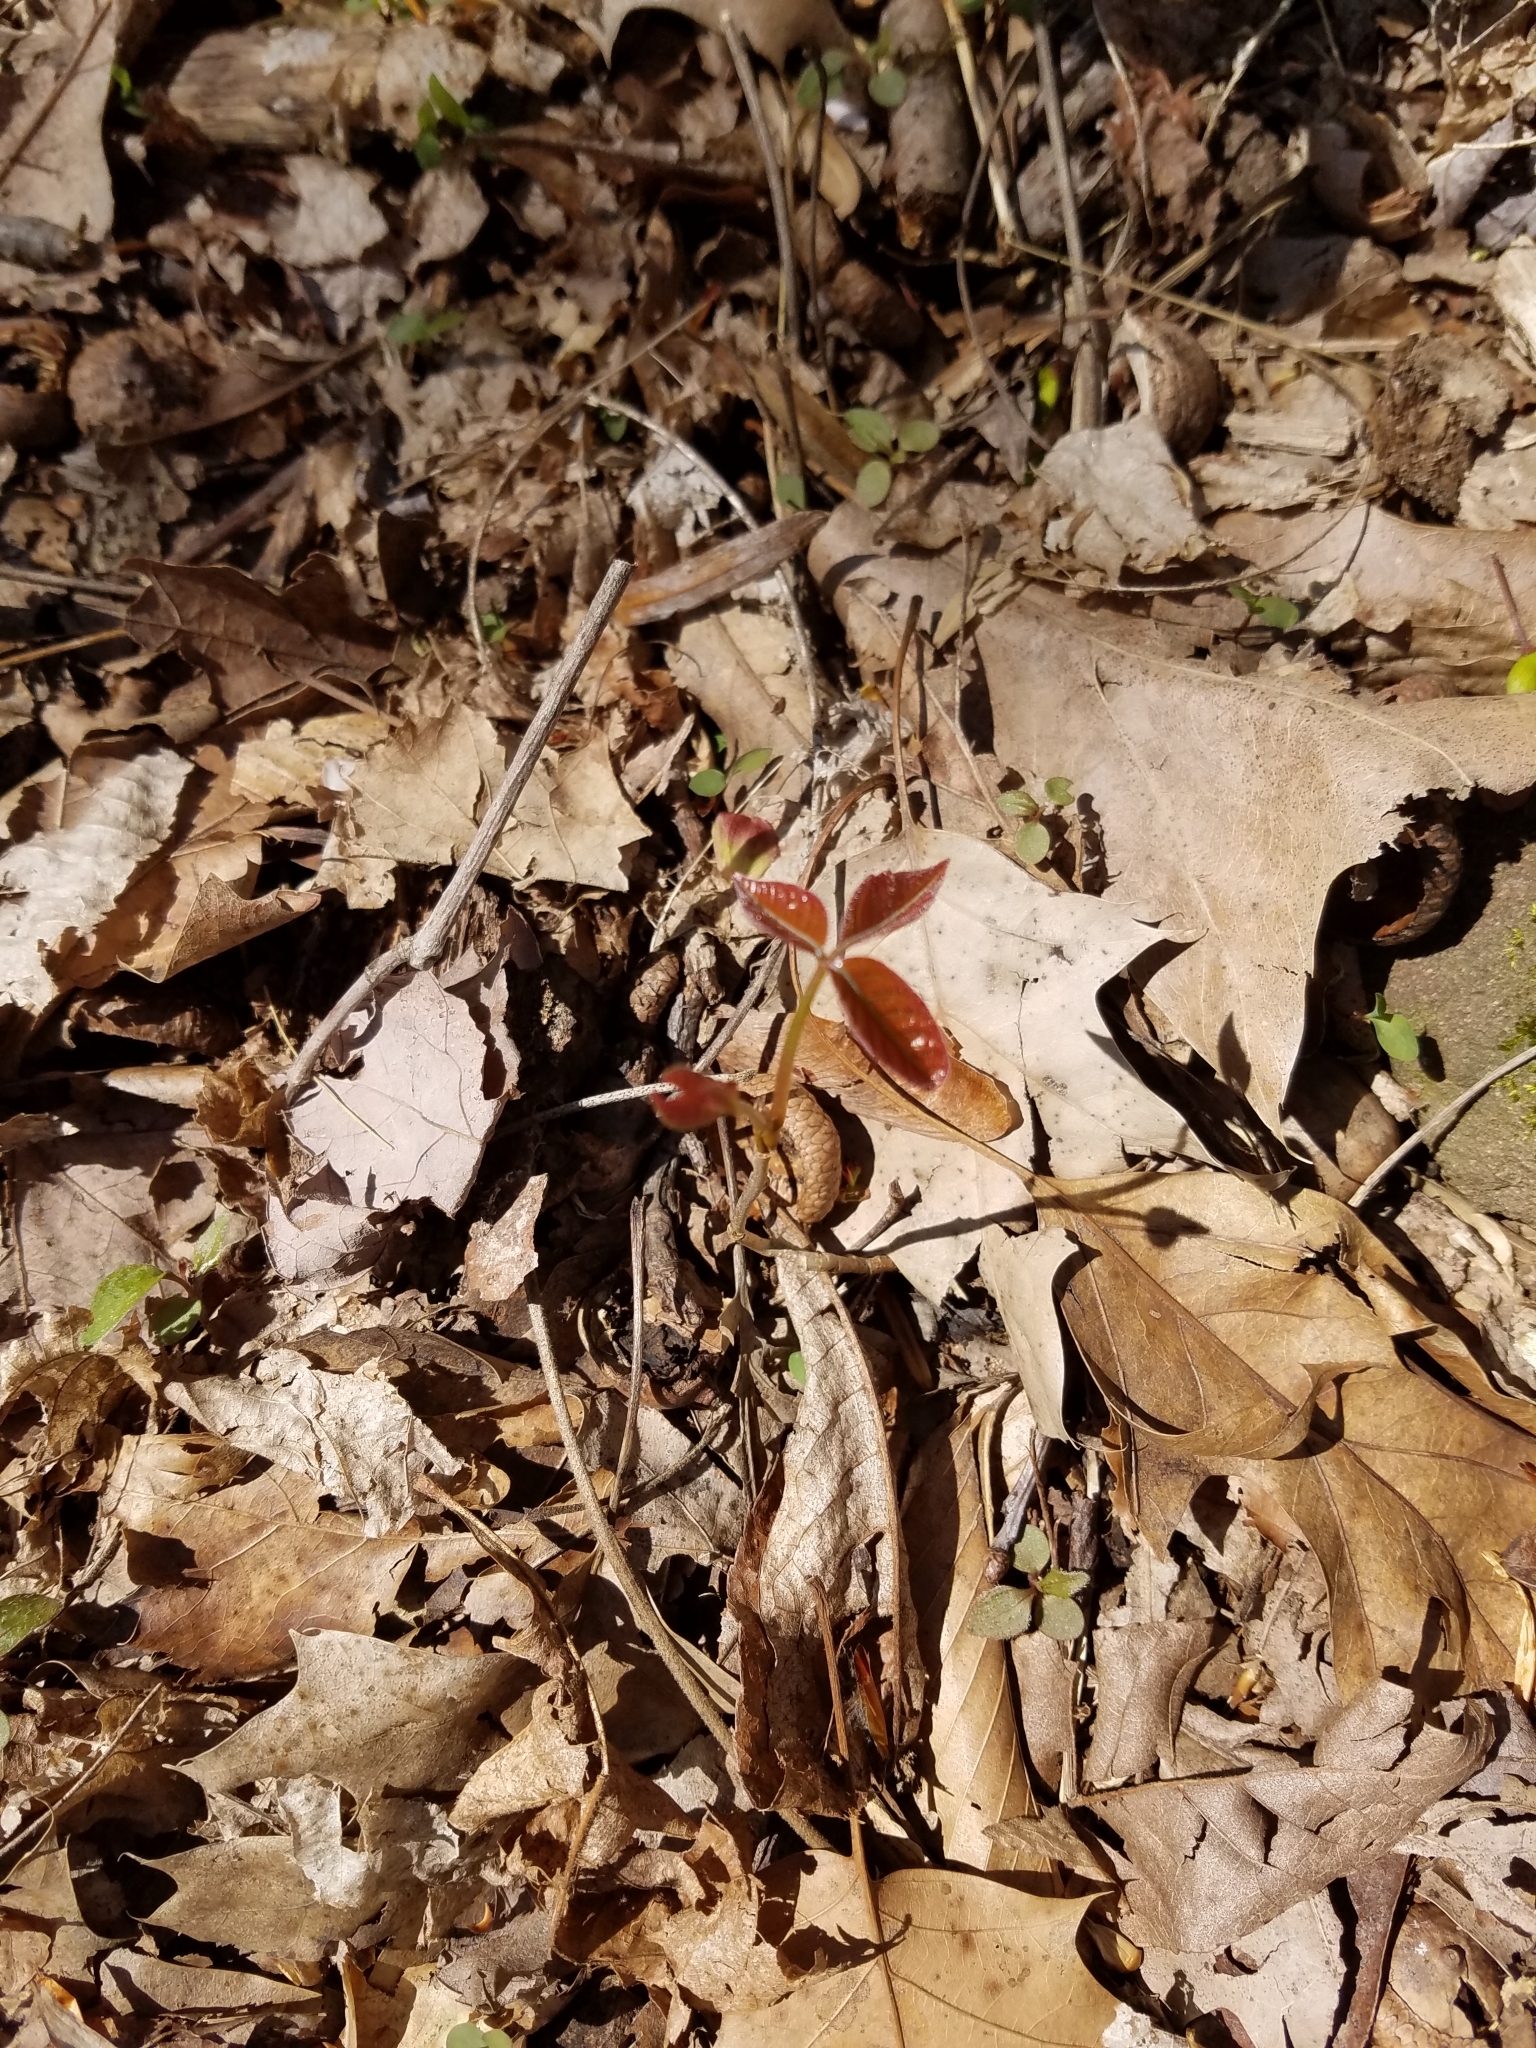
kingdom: Plantae
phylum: Tracheophyta
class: Magnoliopsida
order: Sapindales
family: Anacardiaceae
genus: Toxicodendron
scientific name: Toxicodendron radicans
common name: Poison ivy
